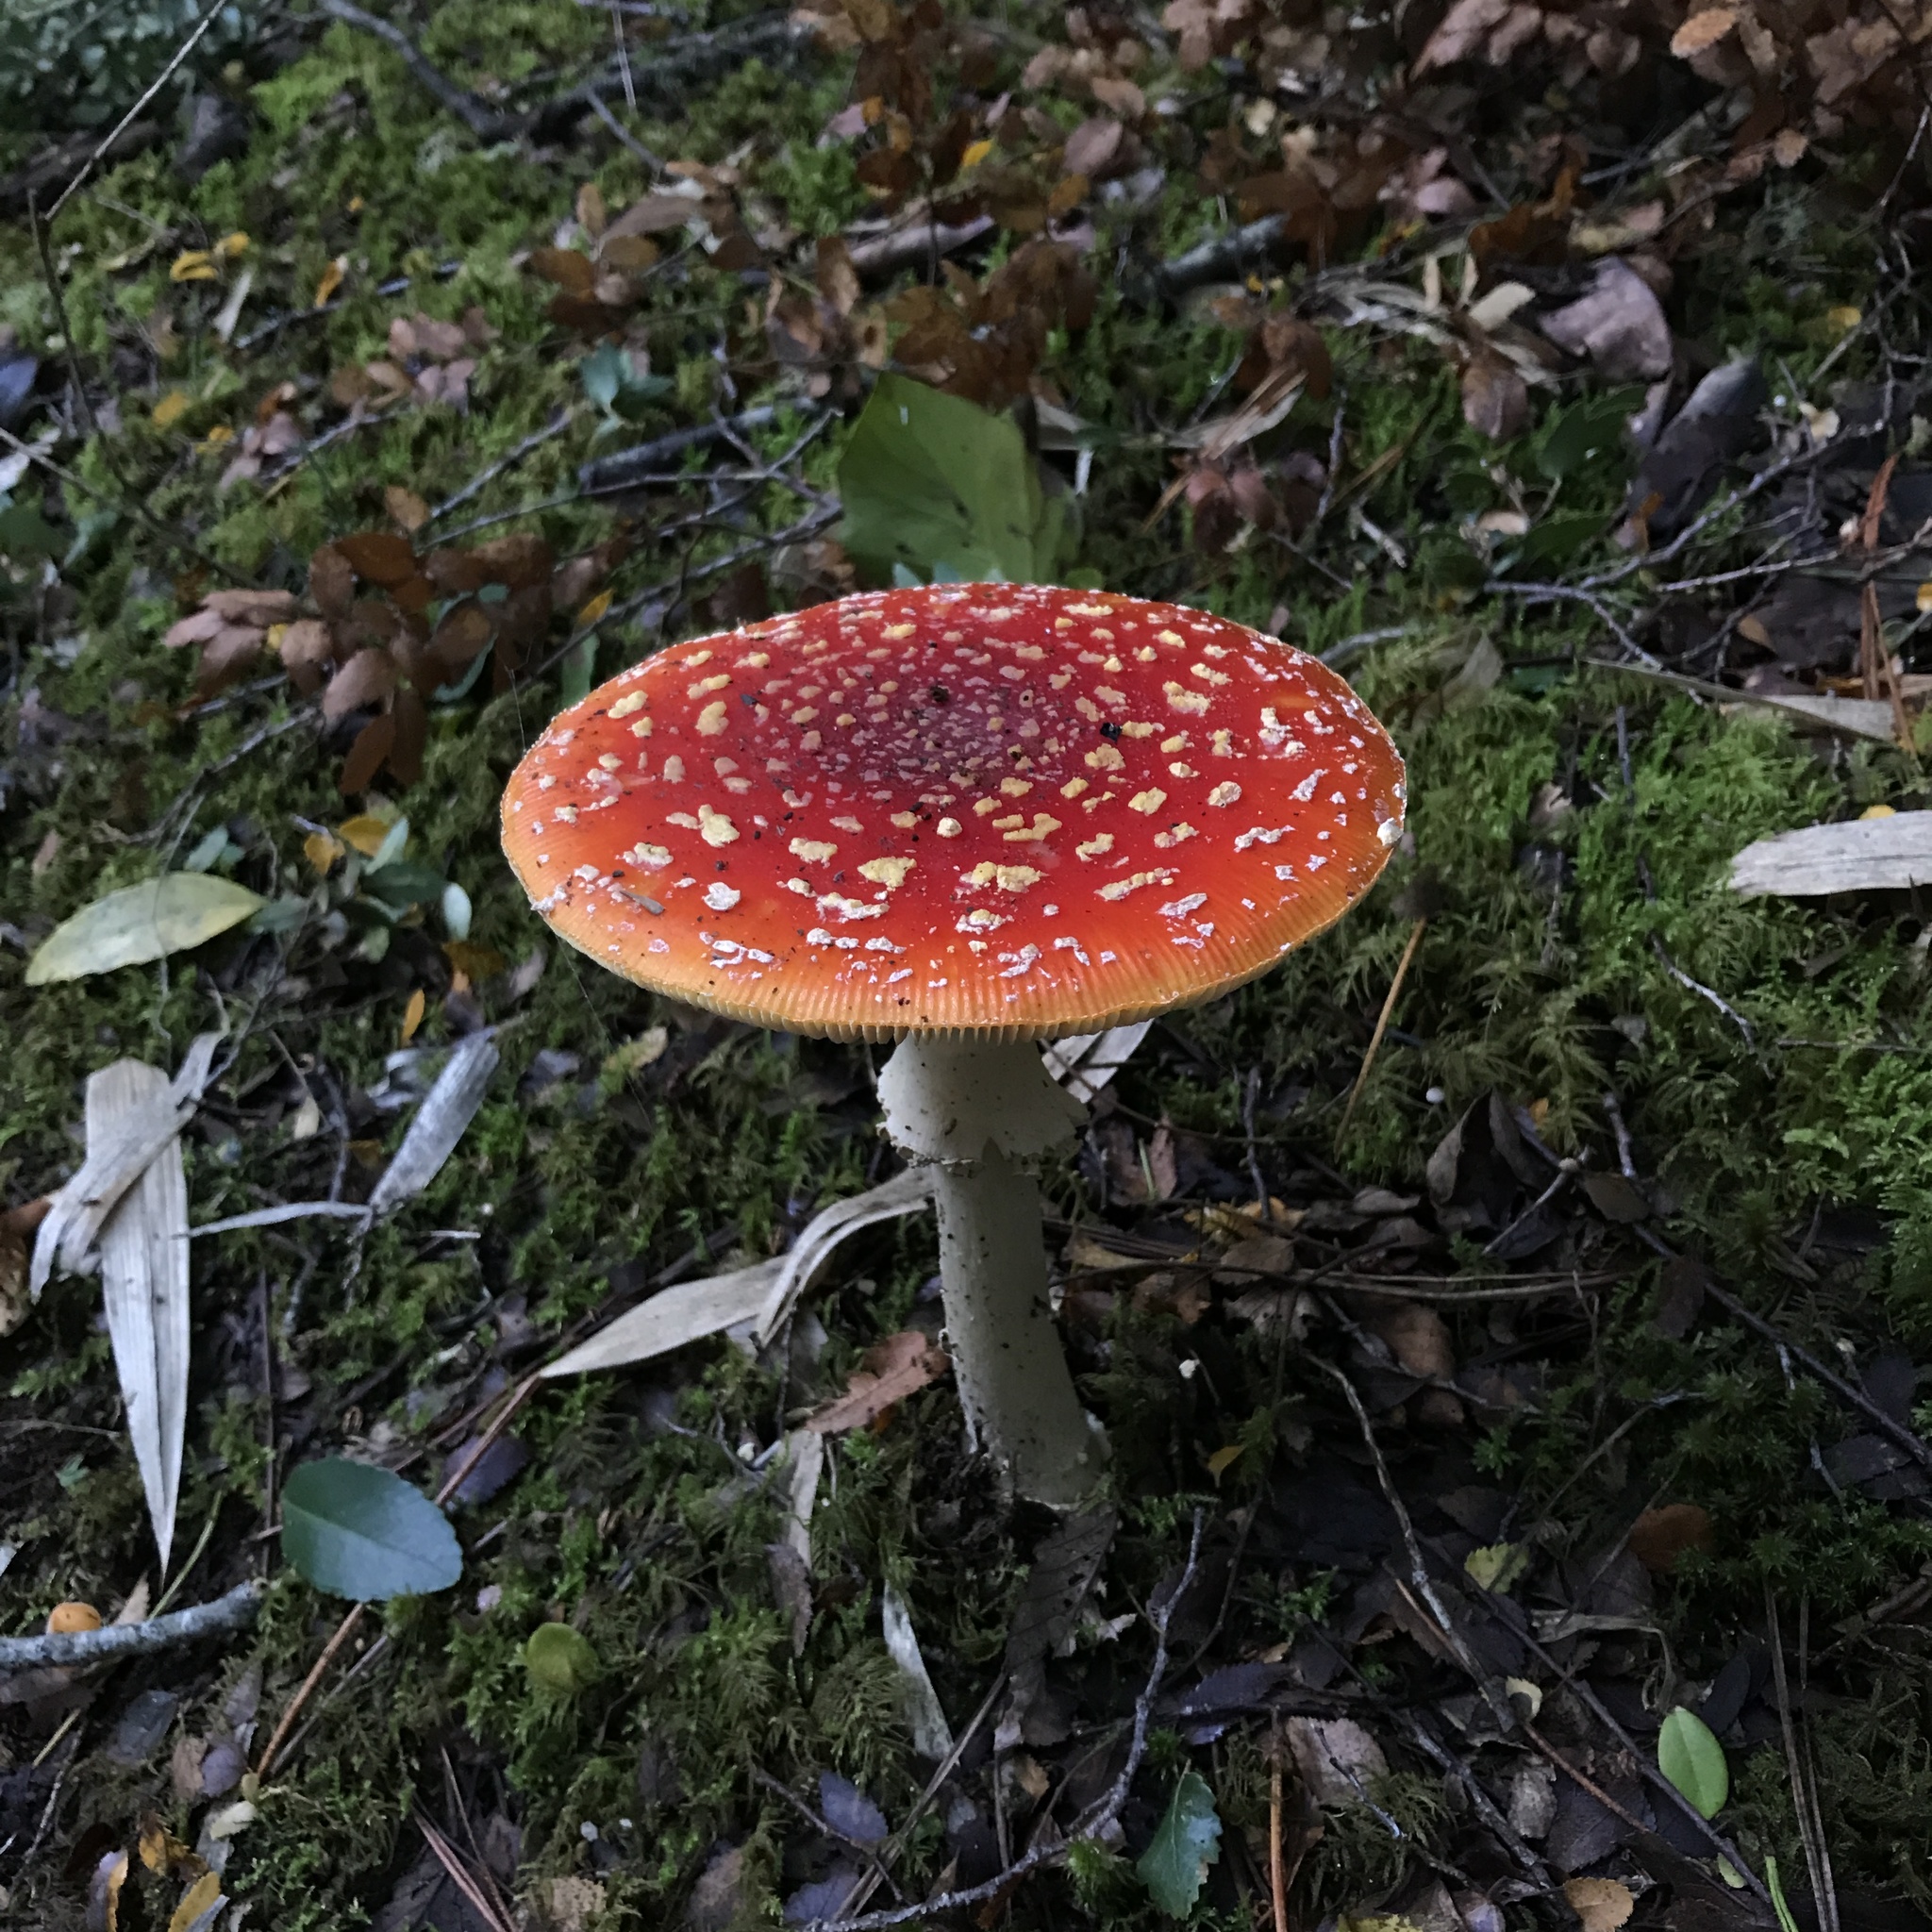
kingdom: Fungi
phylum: Basidiomycota
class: Agaricomycetes
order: Agaricales
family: Amanitaceae
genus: Amanita
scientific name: Amanita muscaria
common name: Fly agaric
